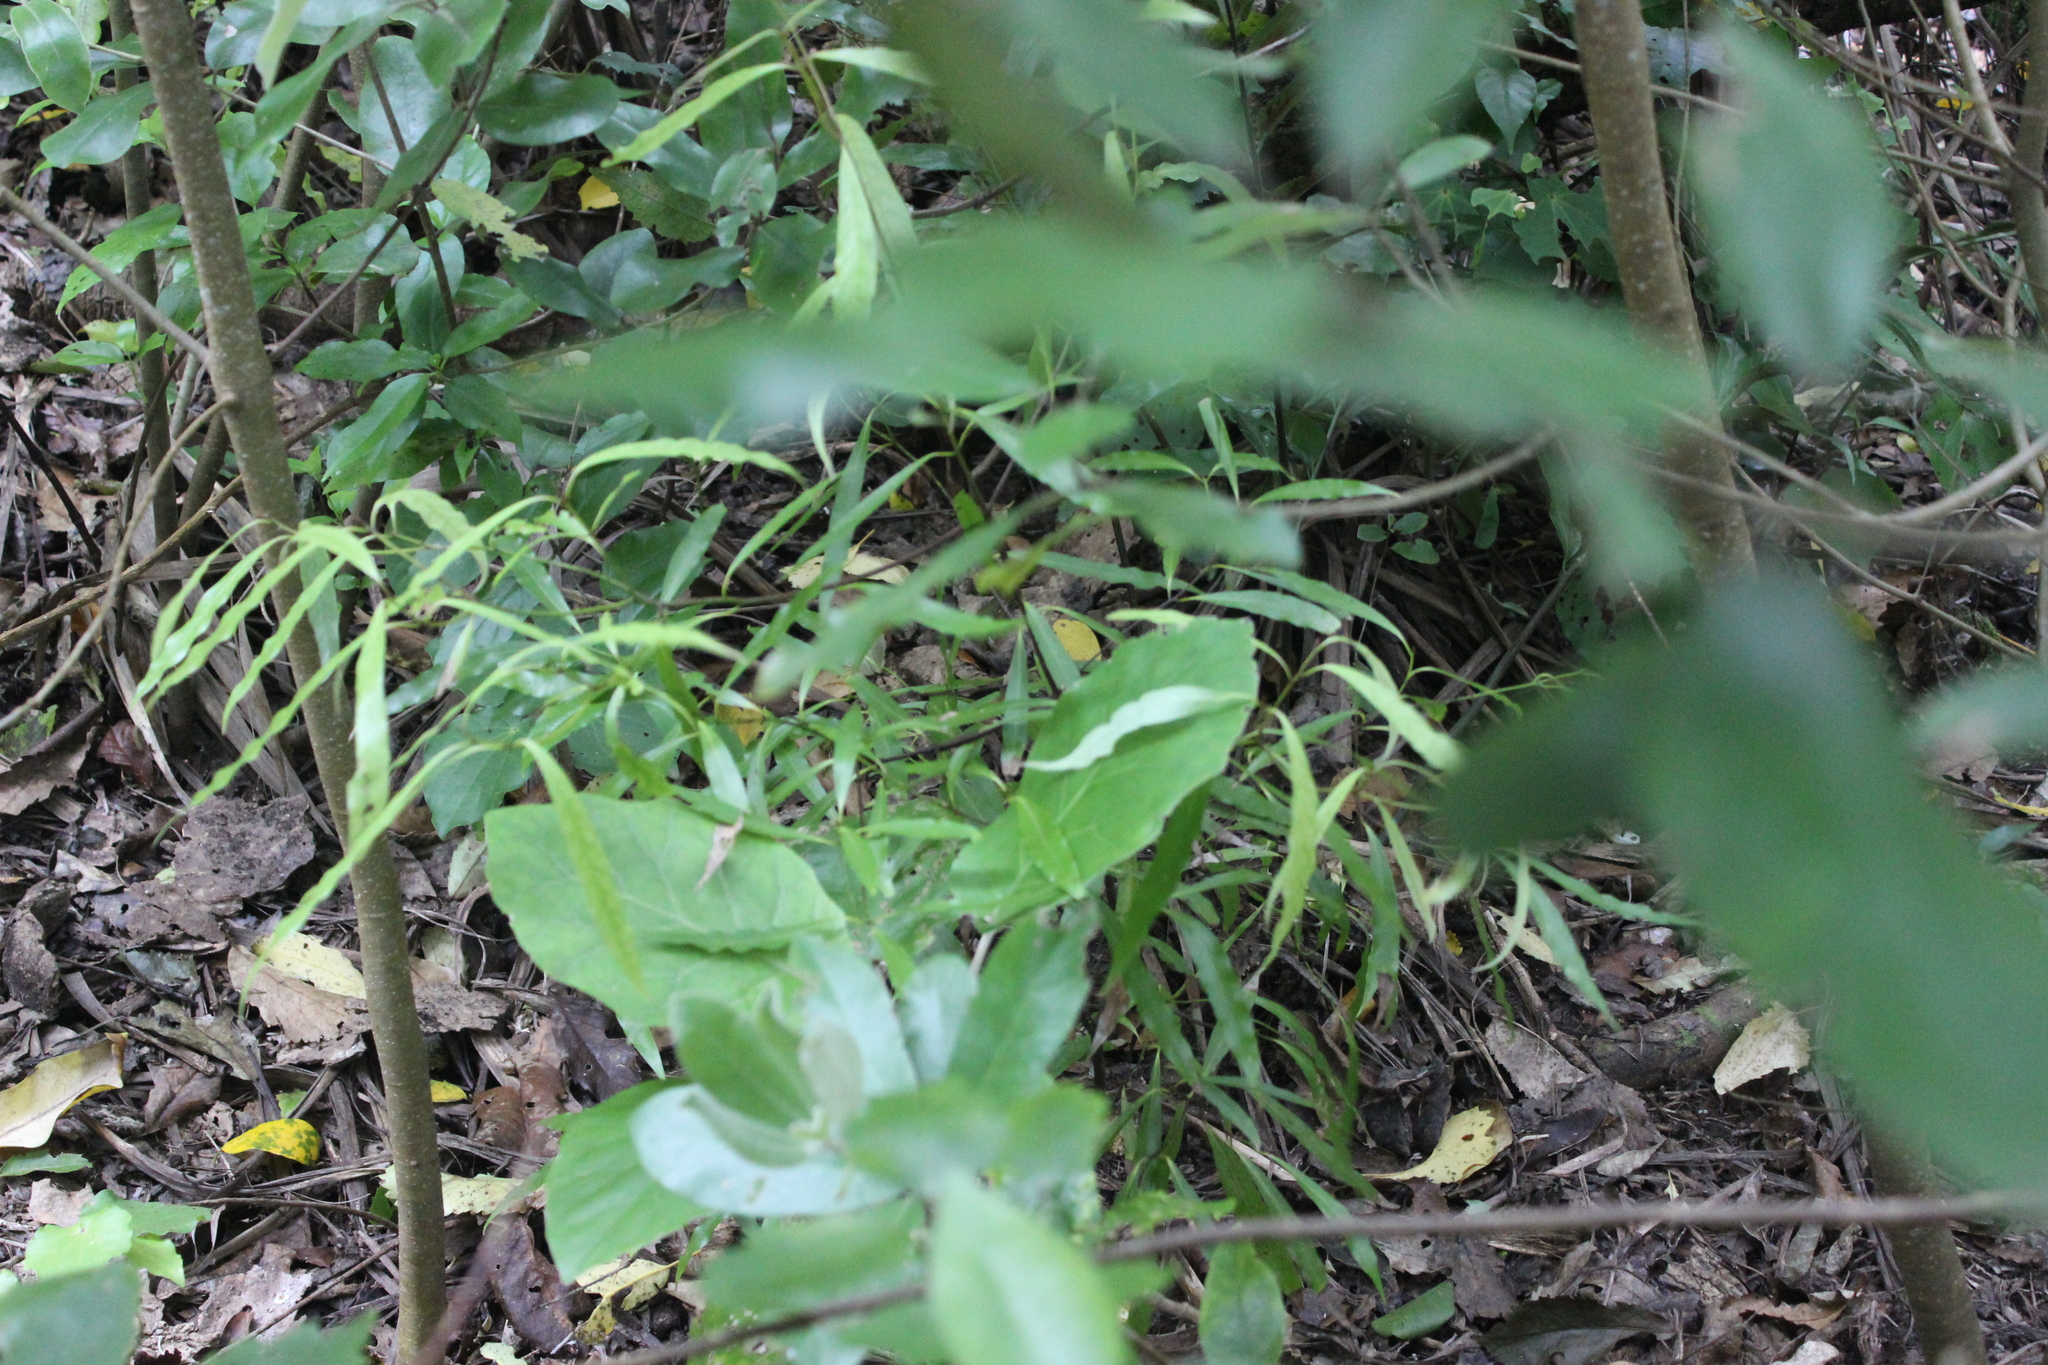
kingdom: Plantae
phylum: Tracheophyta
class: Magnoliopsida
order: Laurales
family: Lauraceae
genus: Beilschmiedia
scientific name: Beilschmiedia tawa
